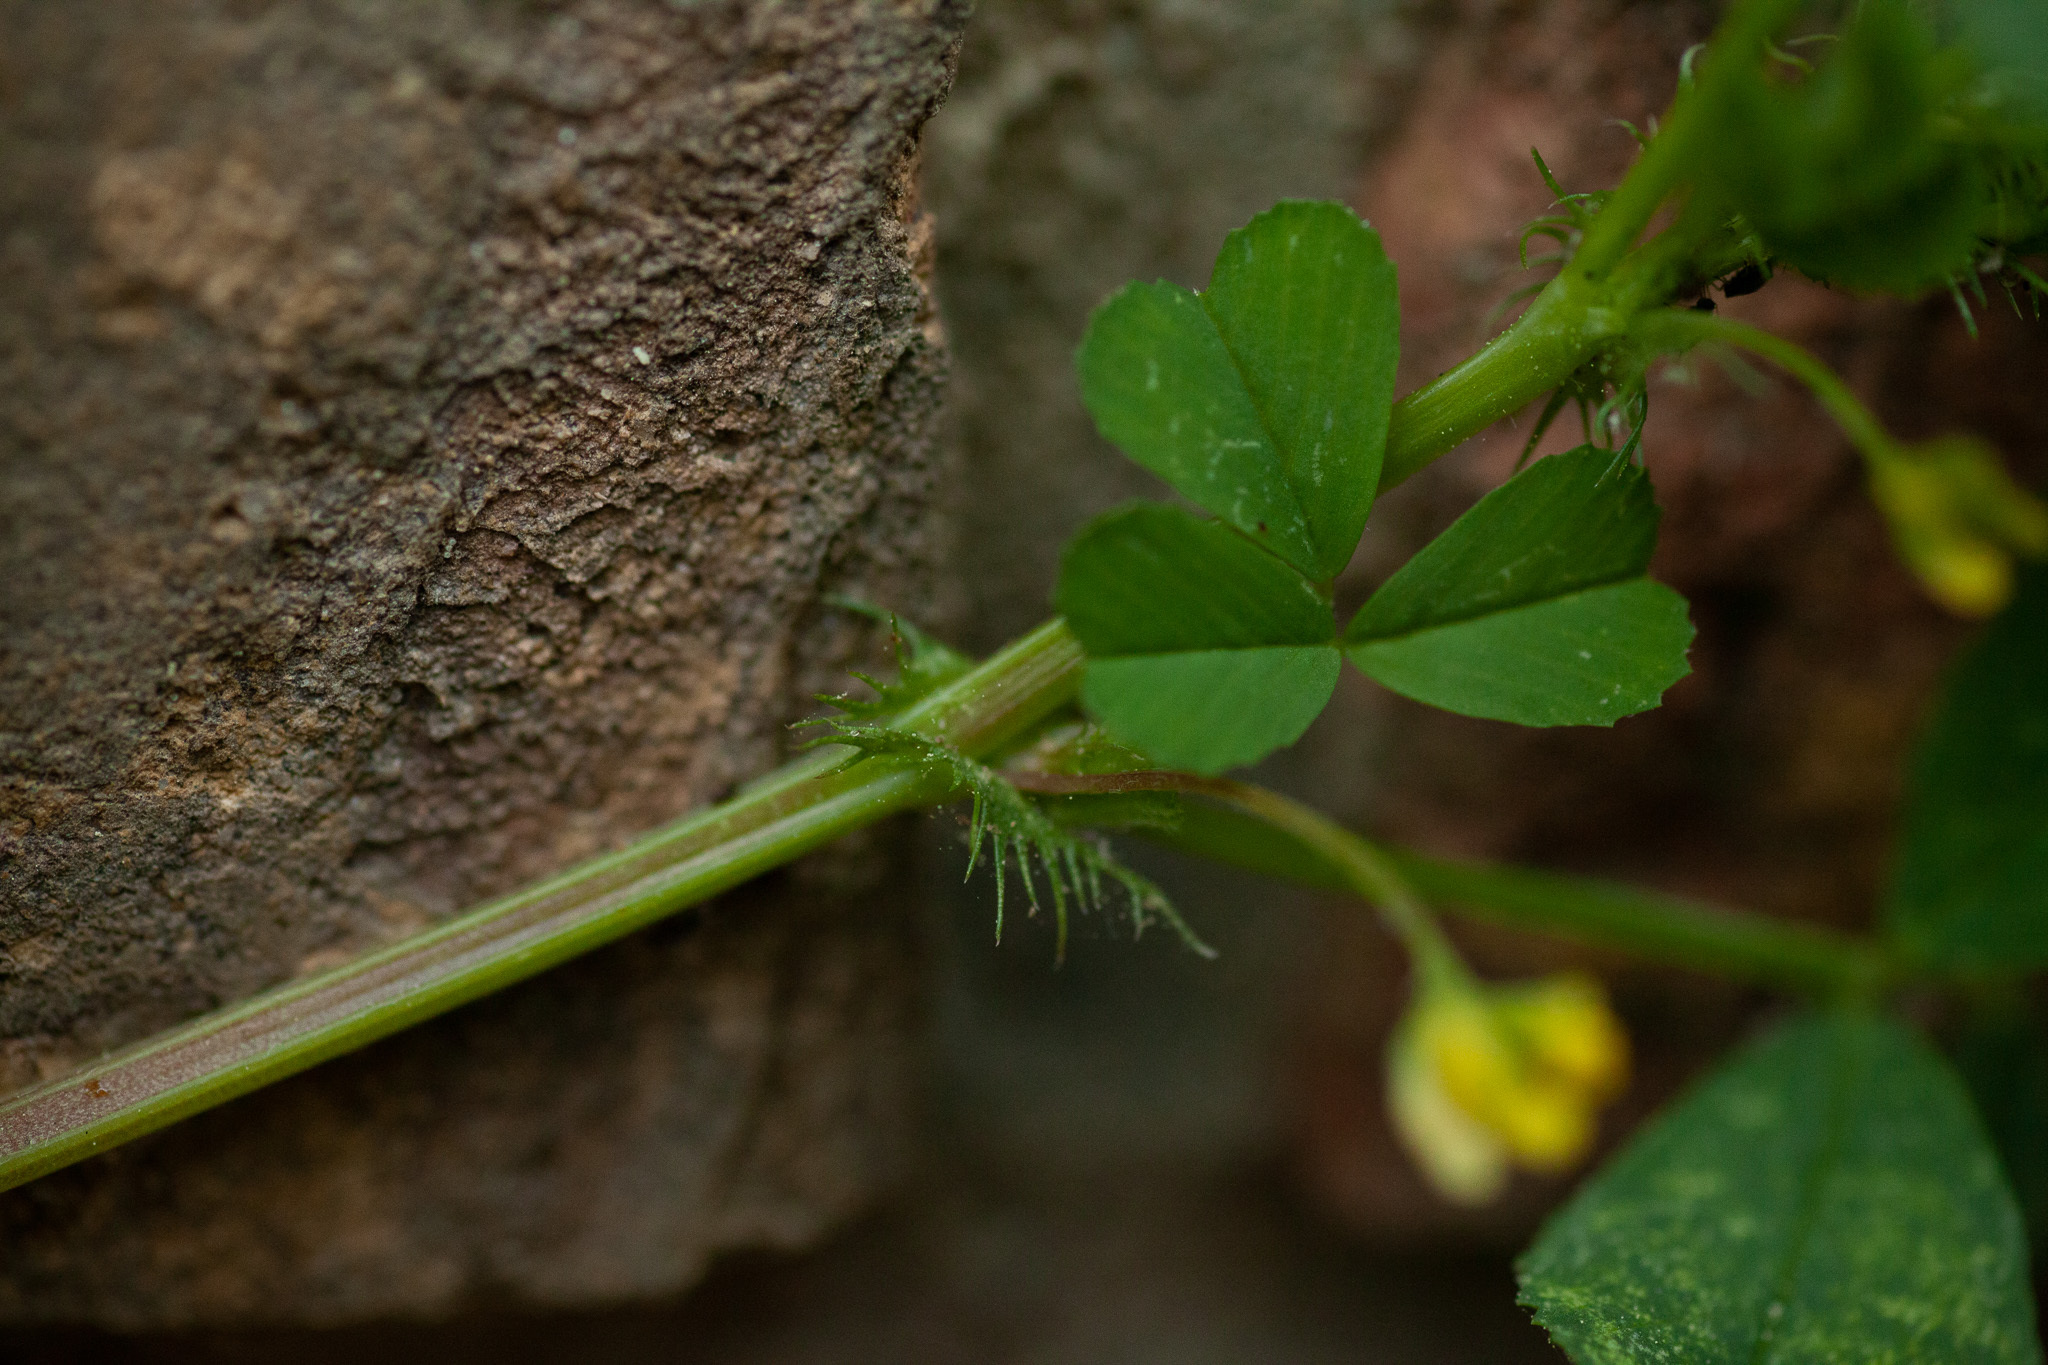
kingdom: Plantae
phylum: Tracheophyta
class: Magnoliopsida
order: Fabales
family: Fabaceae
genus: Medicago
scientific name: Medicago polymorpha
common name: Burclover
